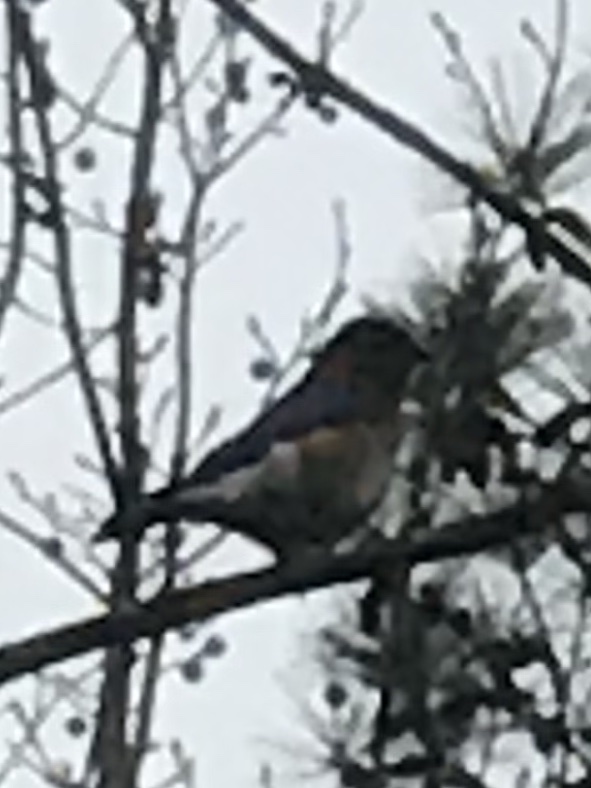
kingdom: Animalia
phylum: Chordata
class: Aves
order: Passeriformes
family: Turdidae
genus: Sialia
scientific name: Sialia sialis
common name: Eastern bluebird
